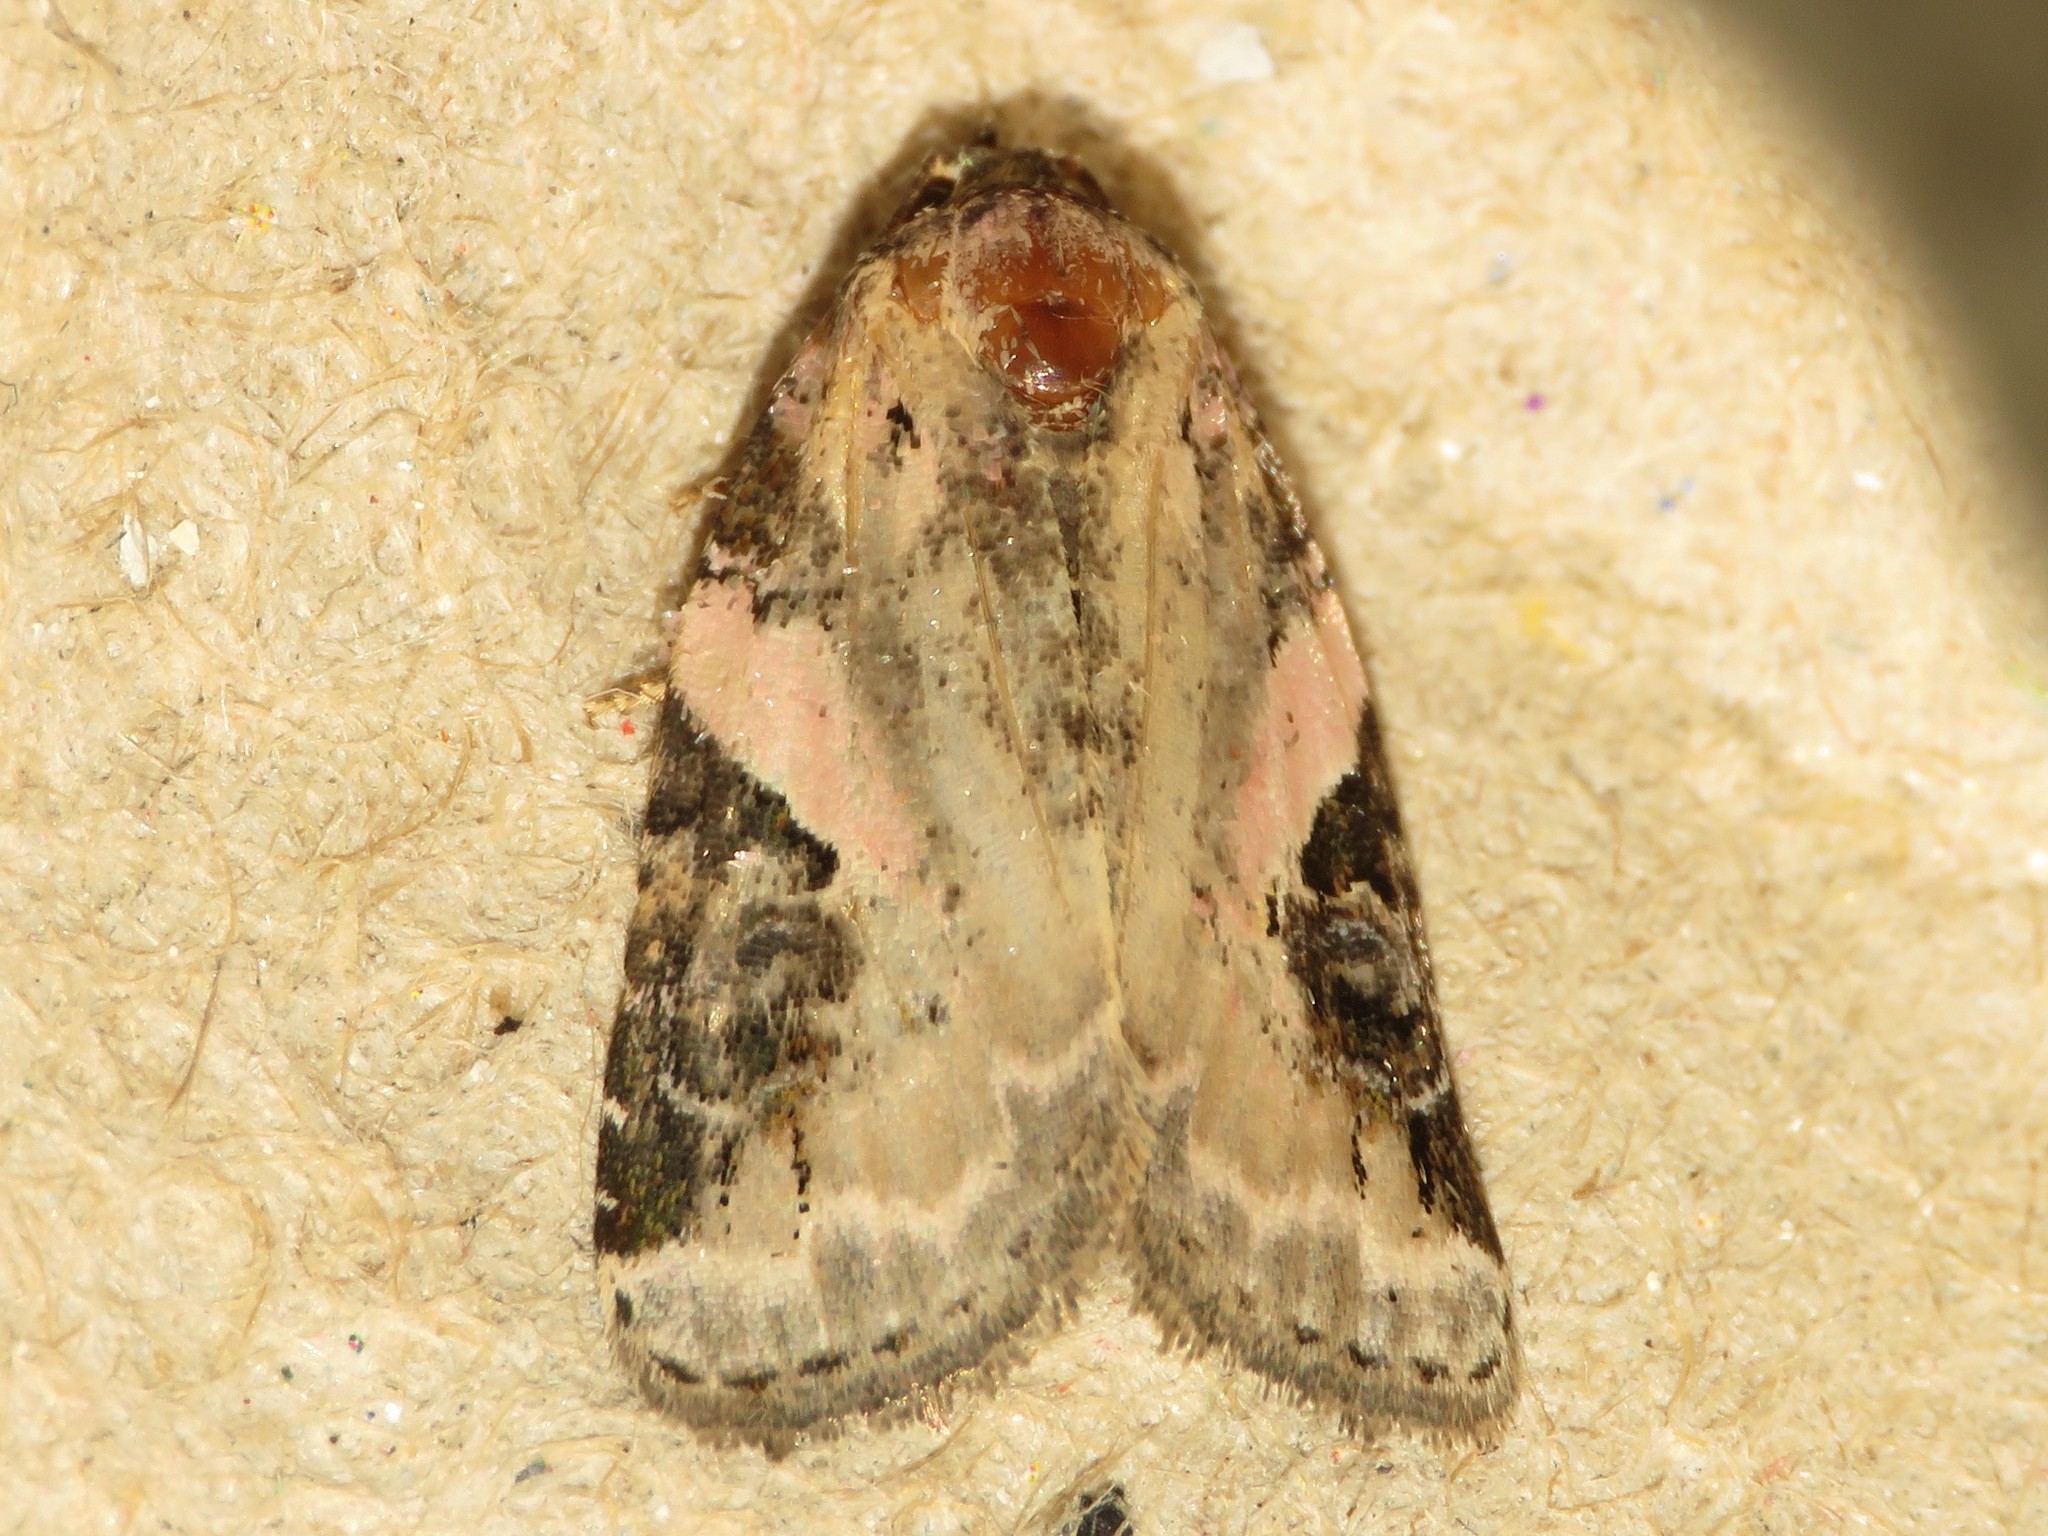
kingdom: Animalia
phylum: Arthropoda
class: Insecta
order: Lepidoptera
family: Noctuidae
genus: Pseudeustrotia
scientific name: Pseudeustrotia carneola
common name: Pink-barred lithacodia moth
